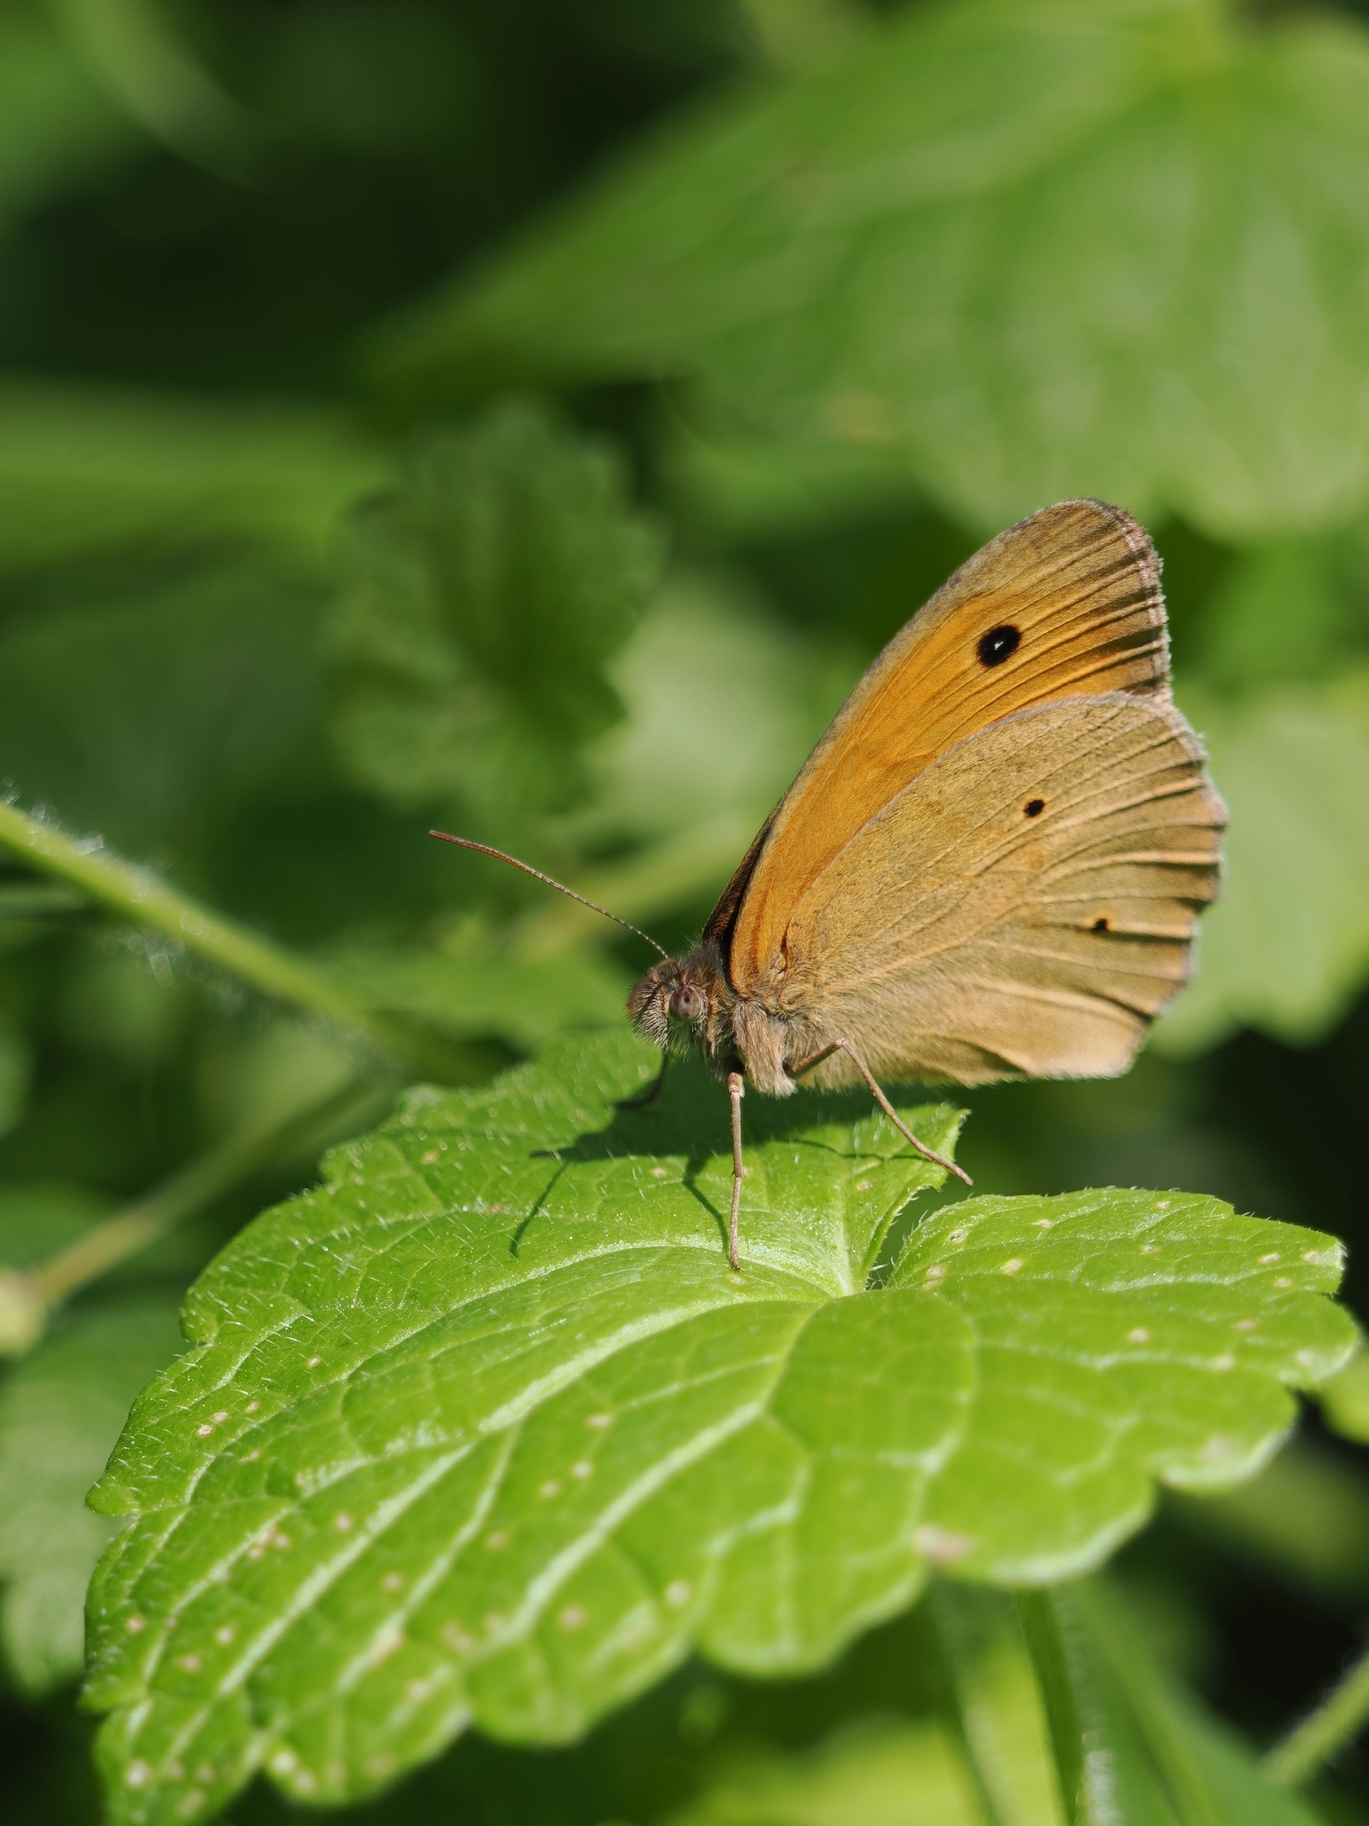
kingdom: Animalia
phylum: Arthropoda
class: Insecta
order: Lepidoptera
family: Nymphalidae
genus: Maniola
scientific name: Maniola jurtina
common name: Meadow brown
